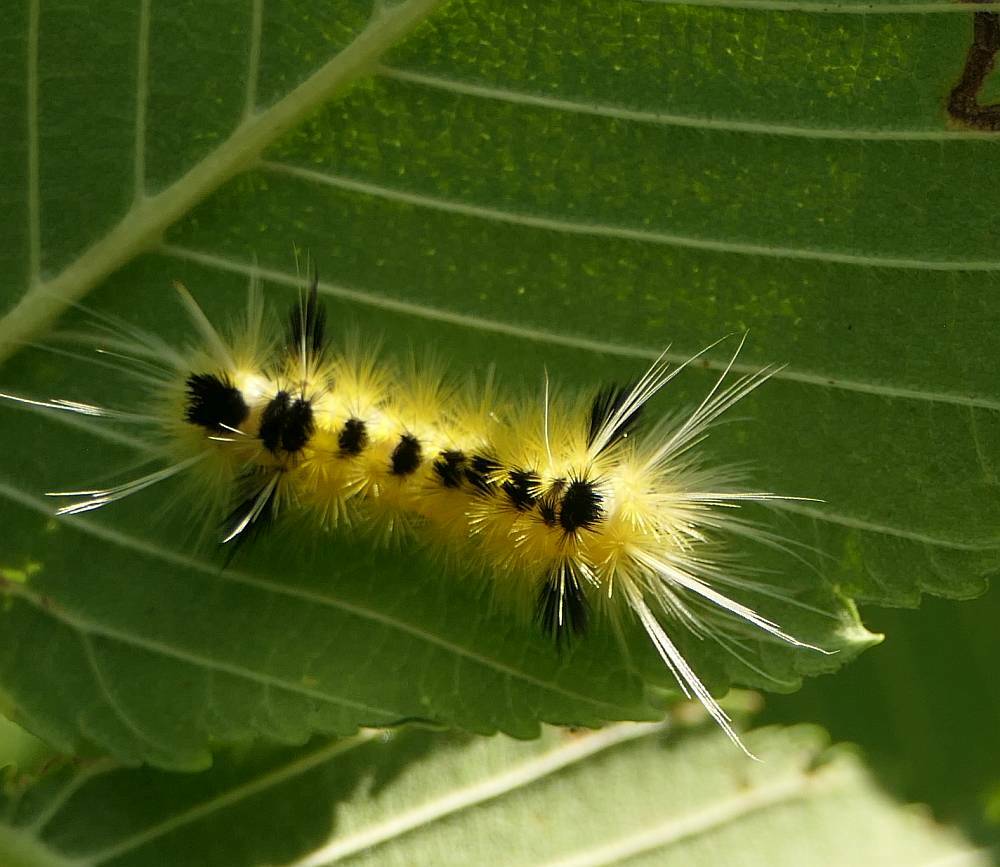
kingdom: Animalia
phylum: Arthropoda
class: Insecta
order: Lepidoptera
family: Erebidae
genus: Lophocampa
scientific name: Lophocampa maculata
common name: Spotted tussock moth
